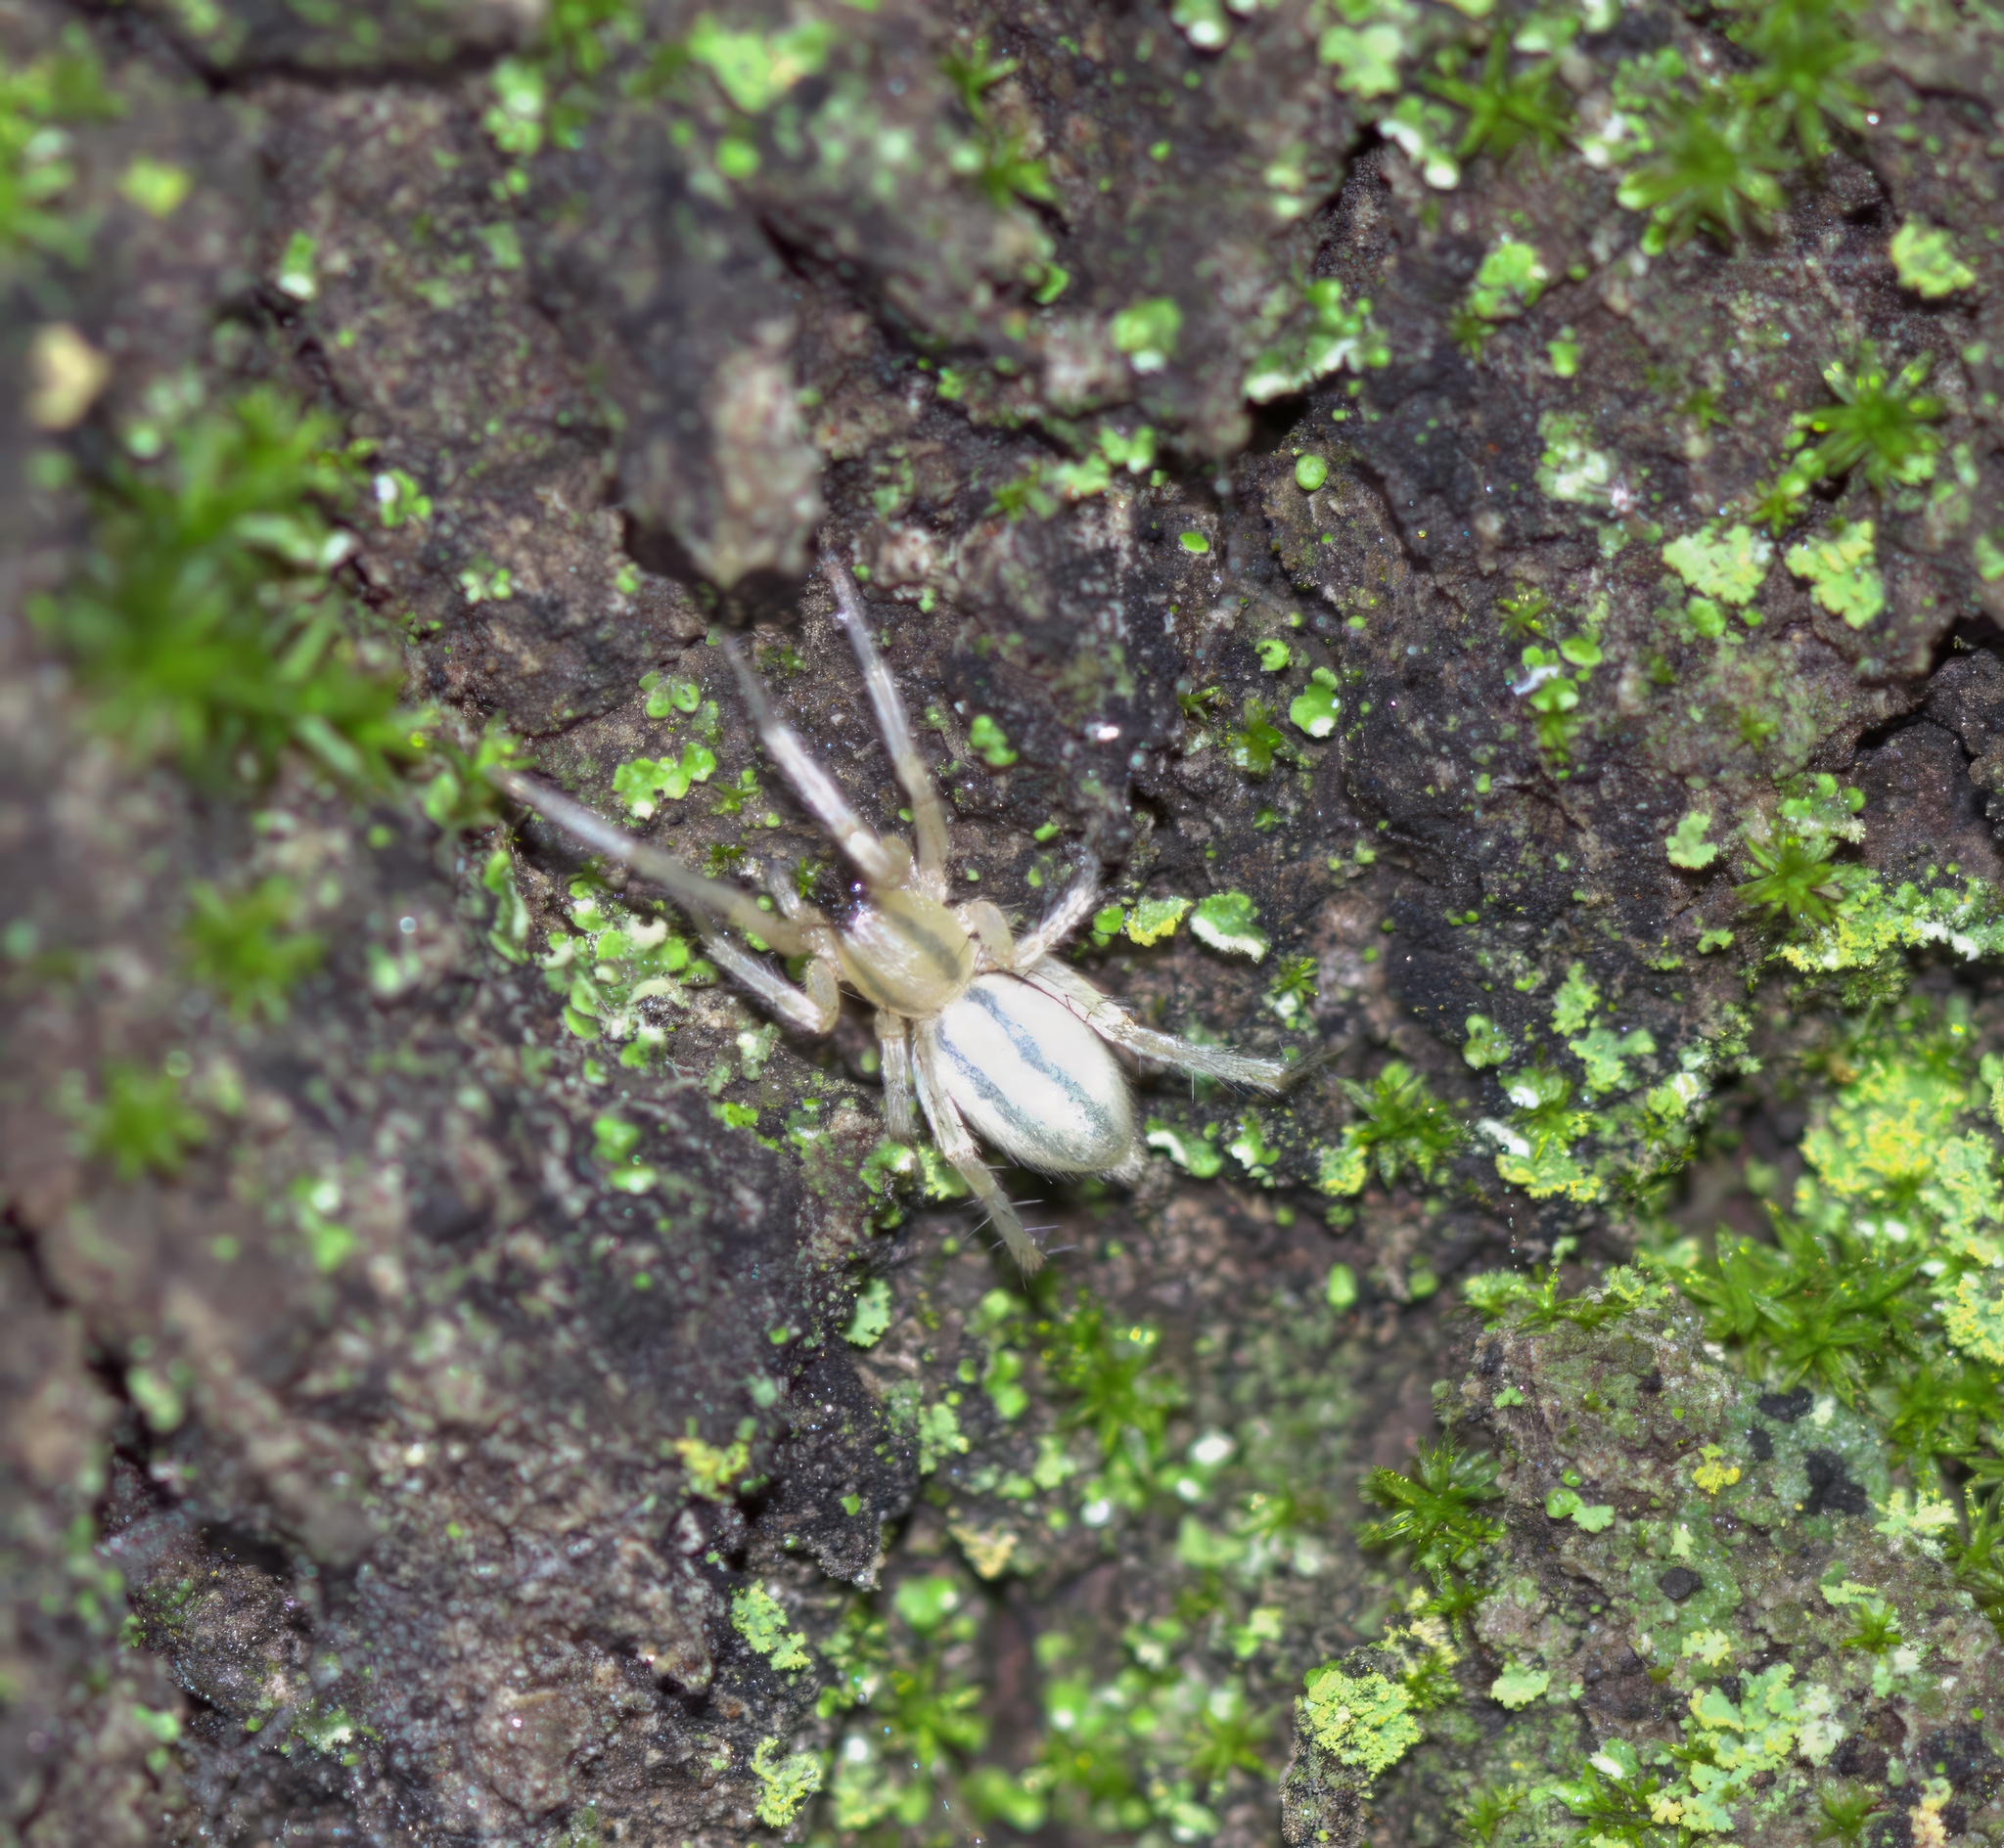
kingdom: Animalia
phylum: Arthropoda
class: Arachnida
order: Araneae
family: Anyphaenidae
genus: Hibana
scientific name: Hibana incursa
